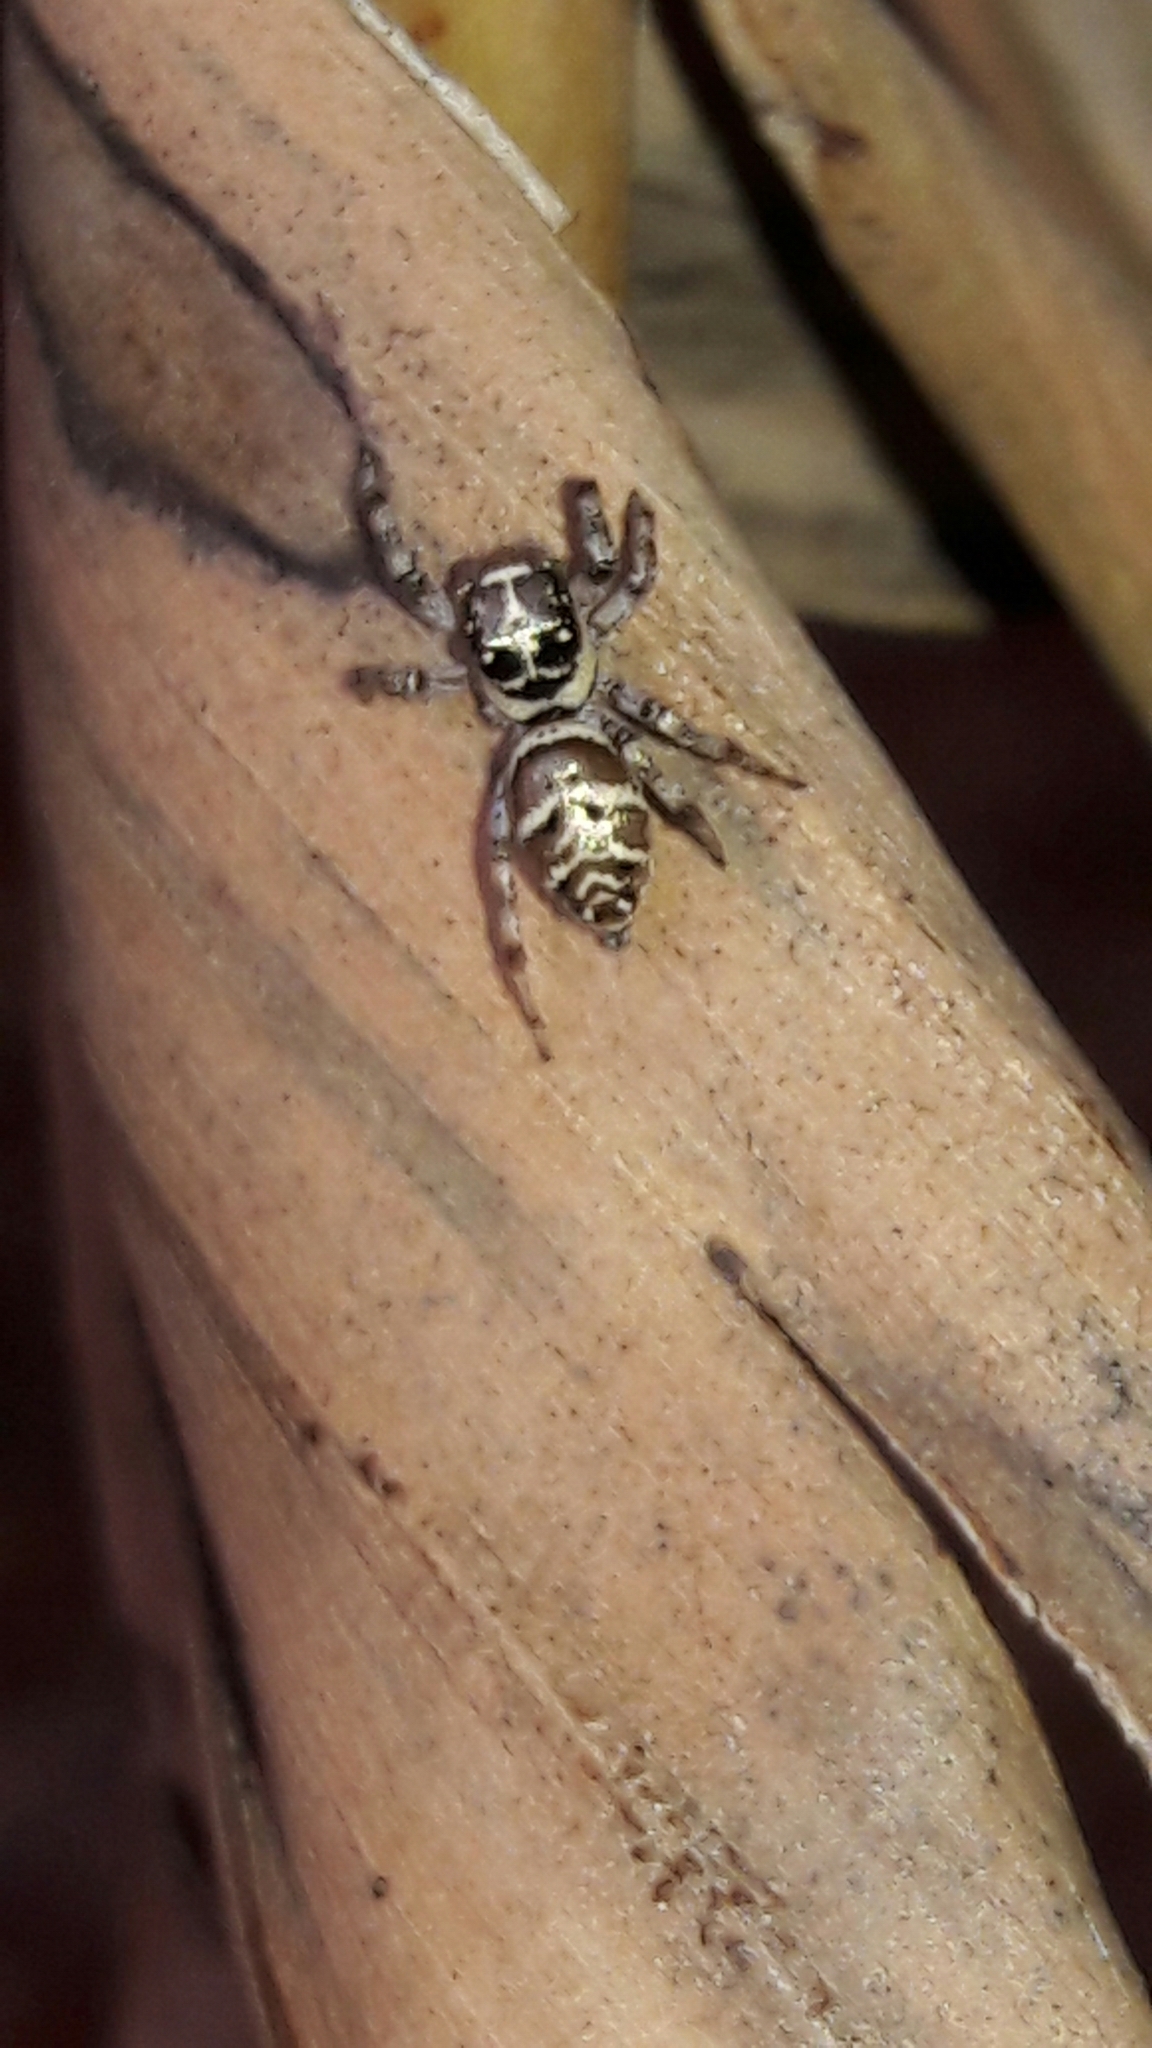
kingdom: Animalia
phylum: Arthropoda
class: Arachnida
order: Araneae
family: Salticidae
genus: Philira
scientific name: Philira micans
